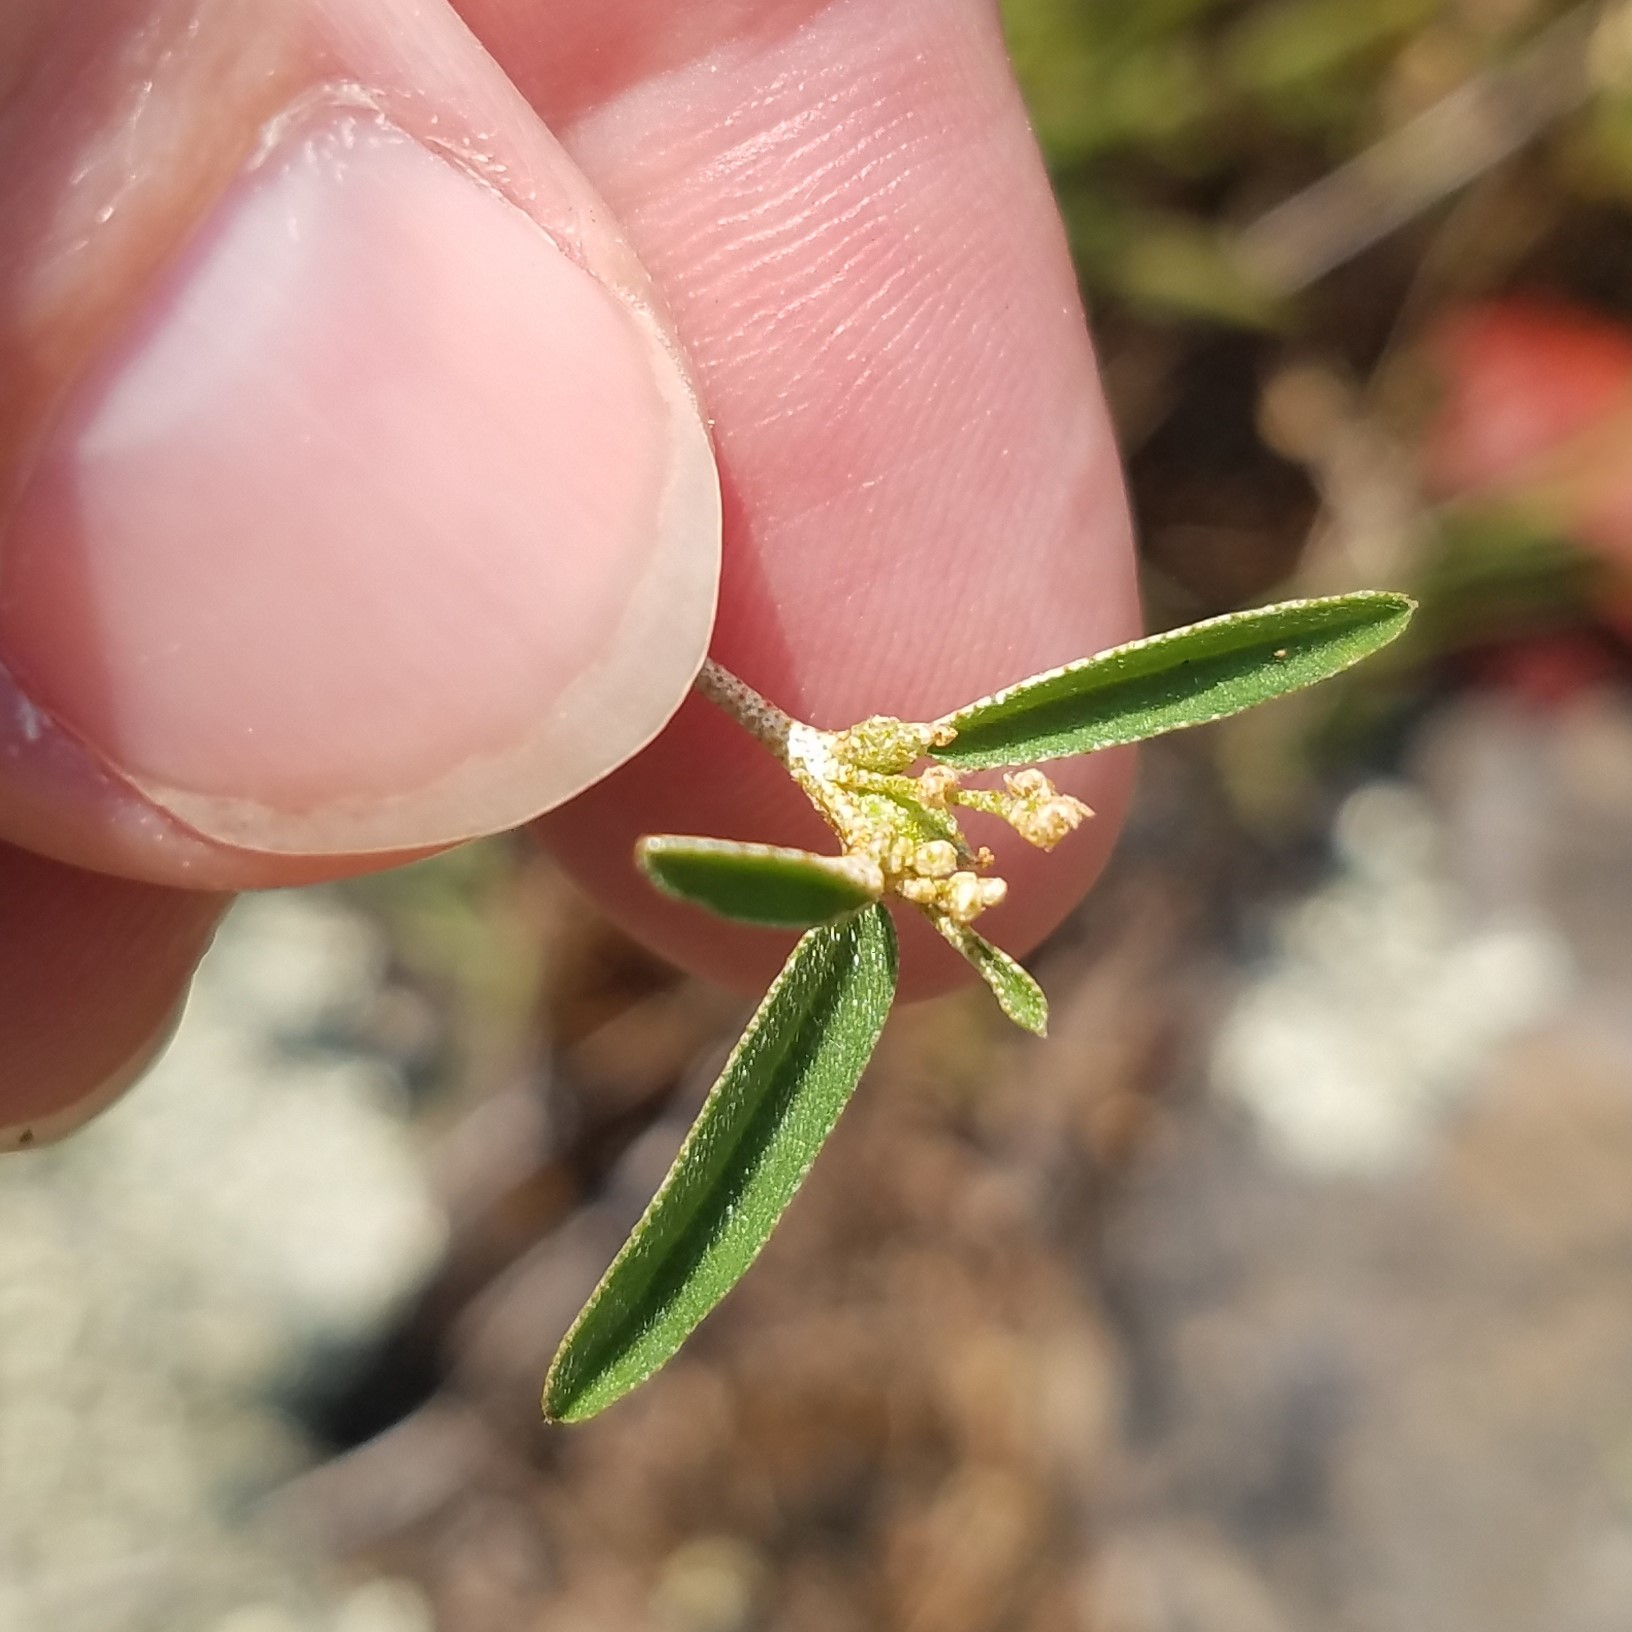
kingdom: Plantae
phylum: Tracheophyta
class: Magnoliopsida
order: Malpighiales
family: Euphorbiaceae
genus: Croton
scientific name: Croton michauxii
